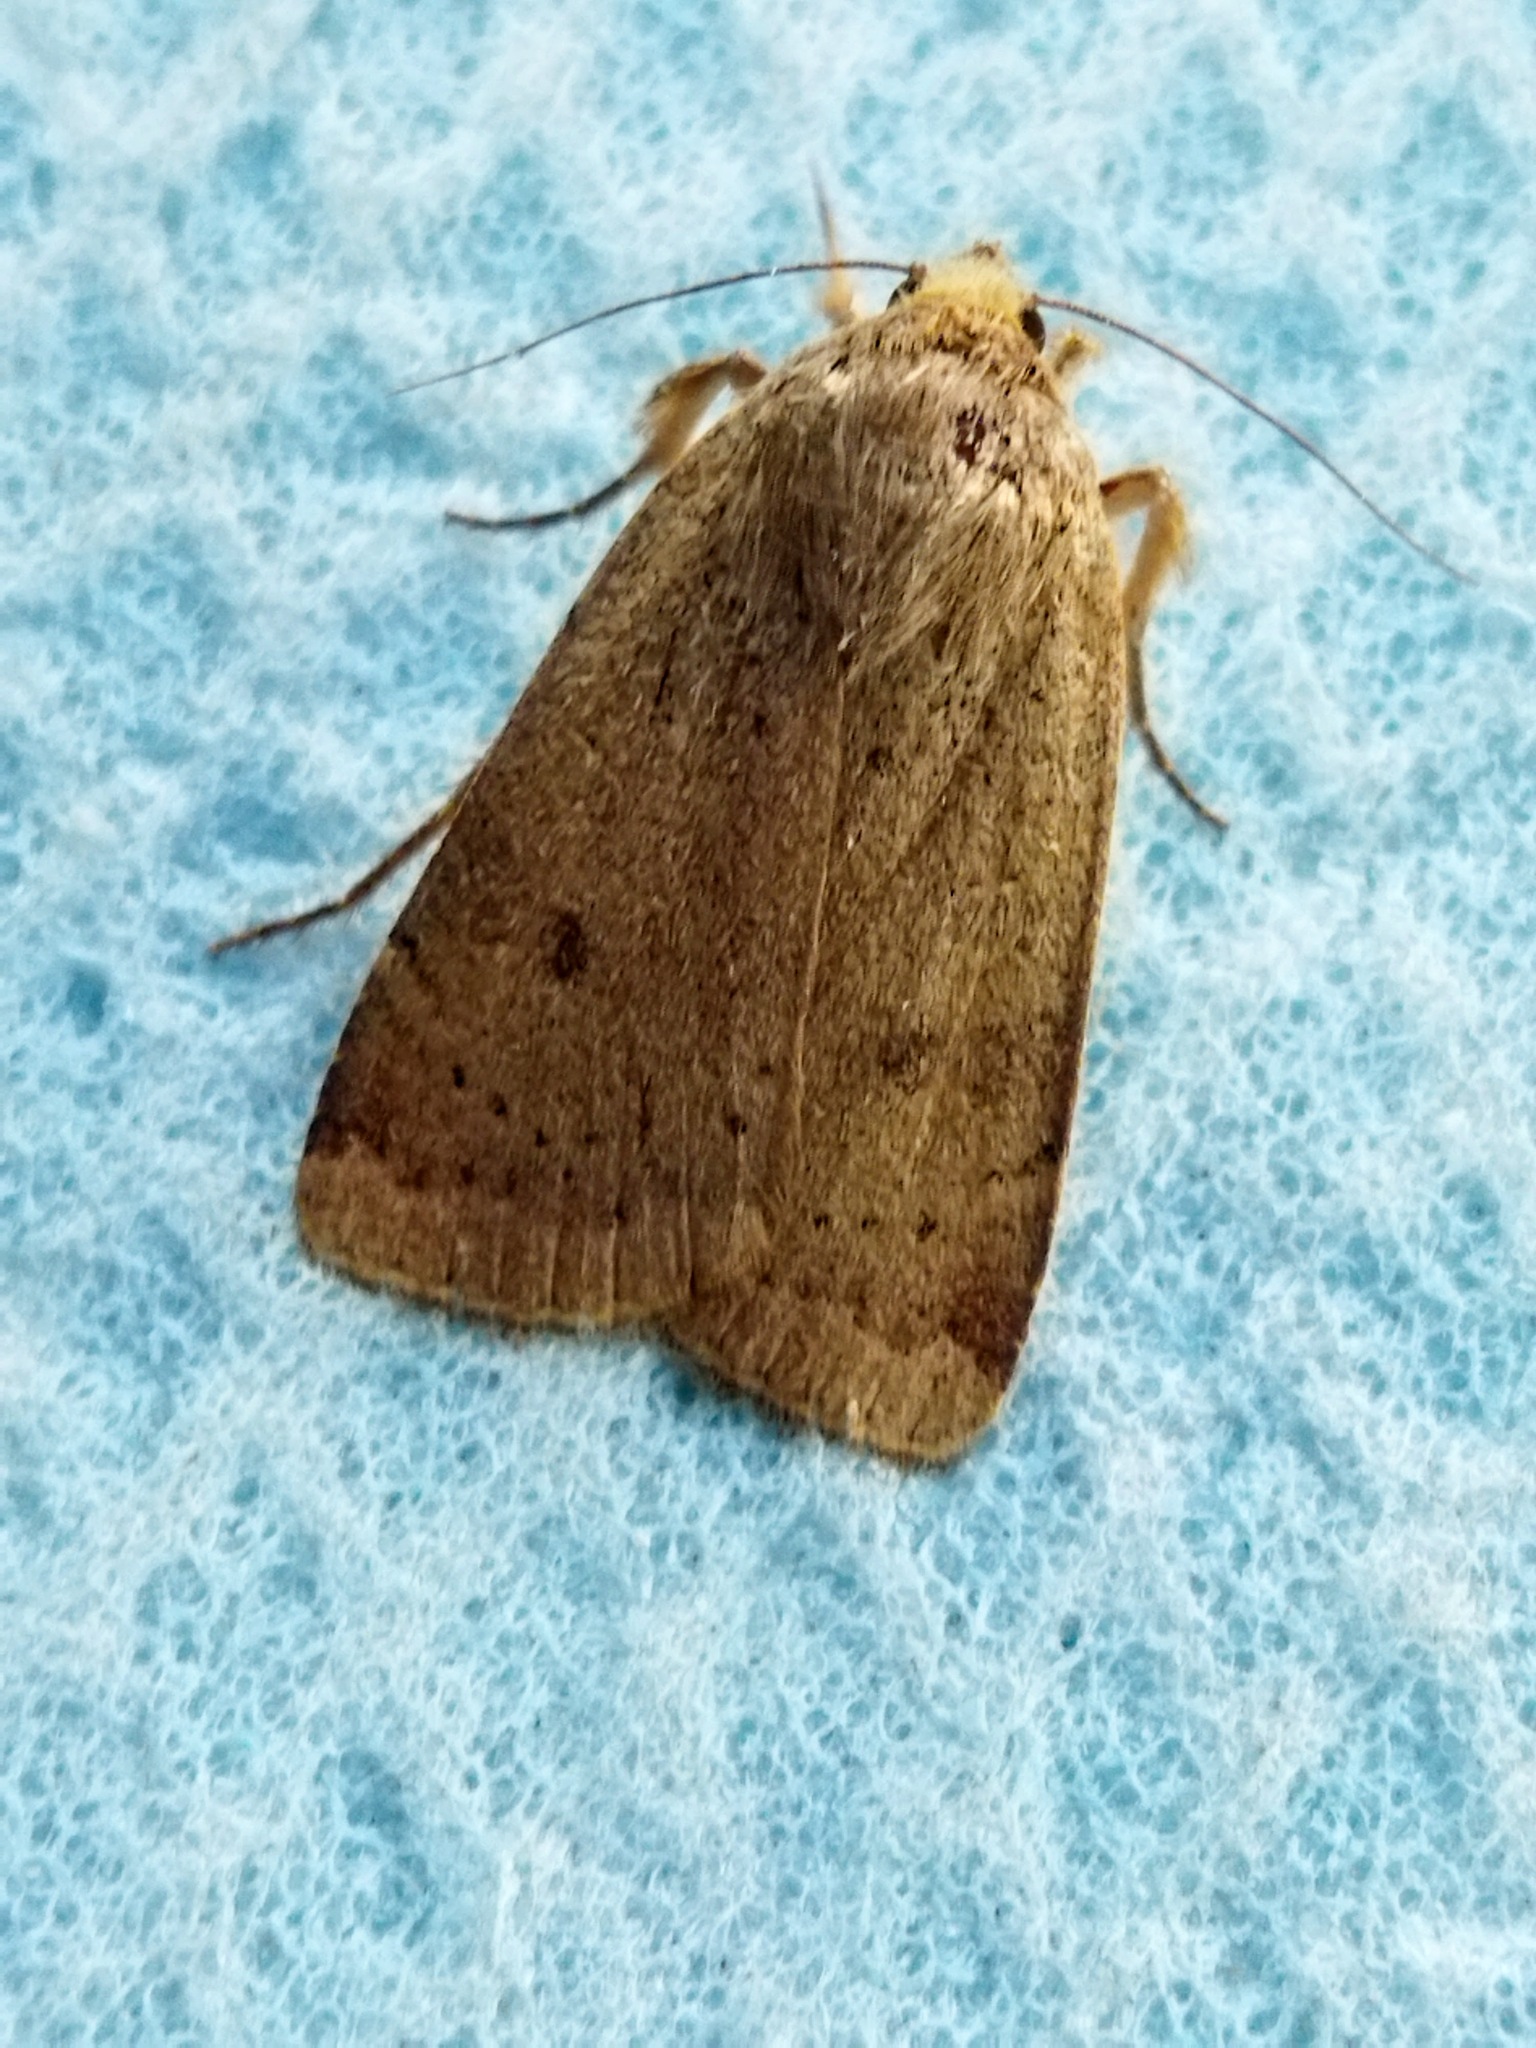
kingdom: Animalia
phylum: Arthropoda
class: Insecta
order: Lepidoptera
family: Noctuidae
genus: Noctua
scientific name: Noctua comes
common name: Lesser yellow underwing
